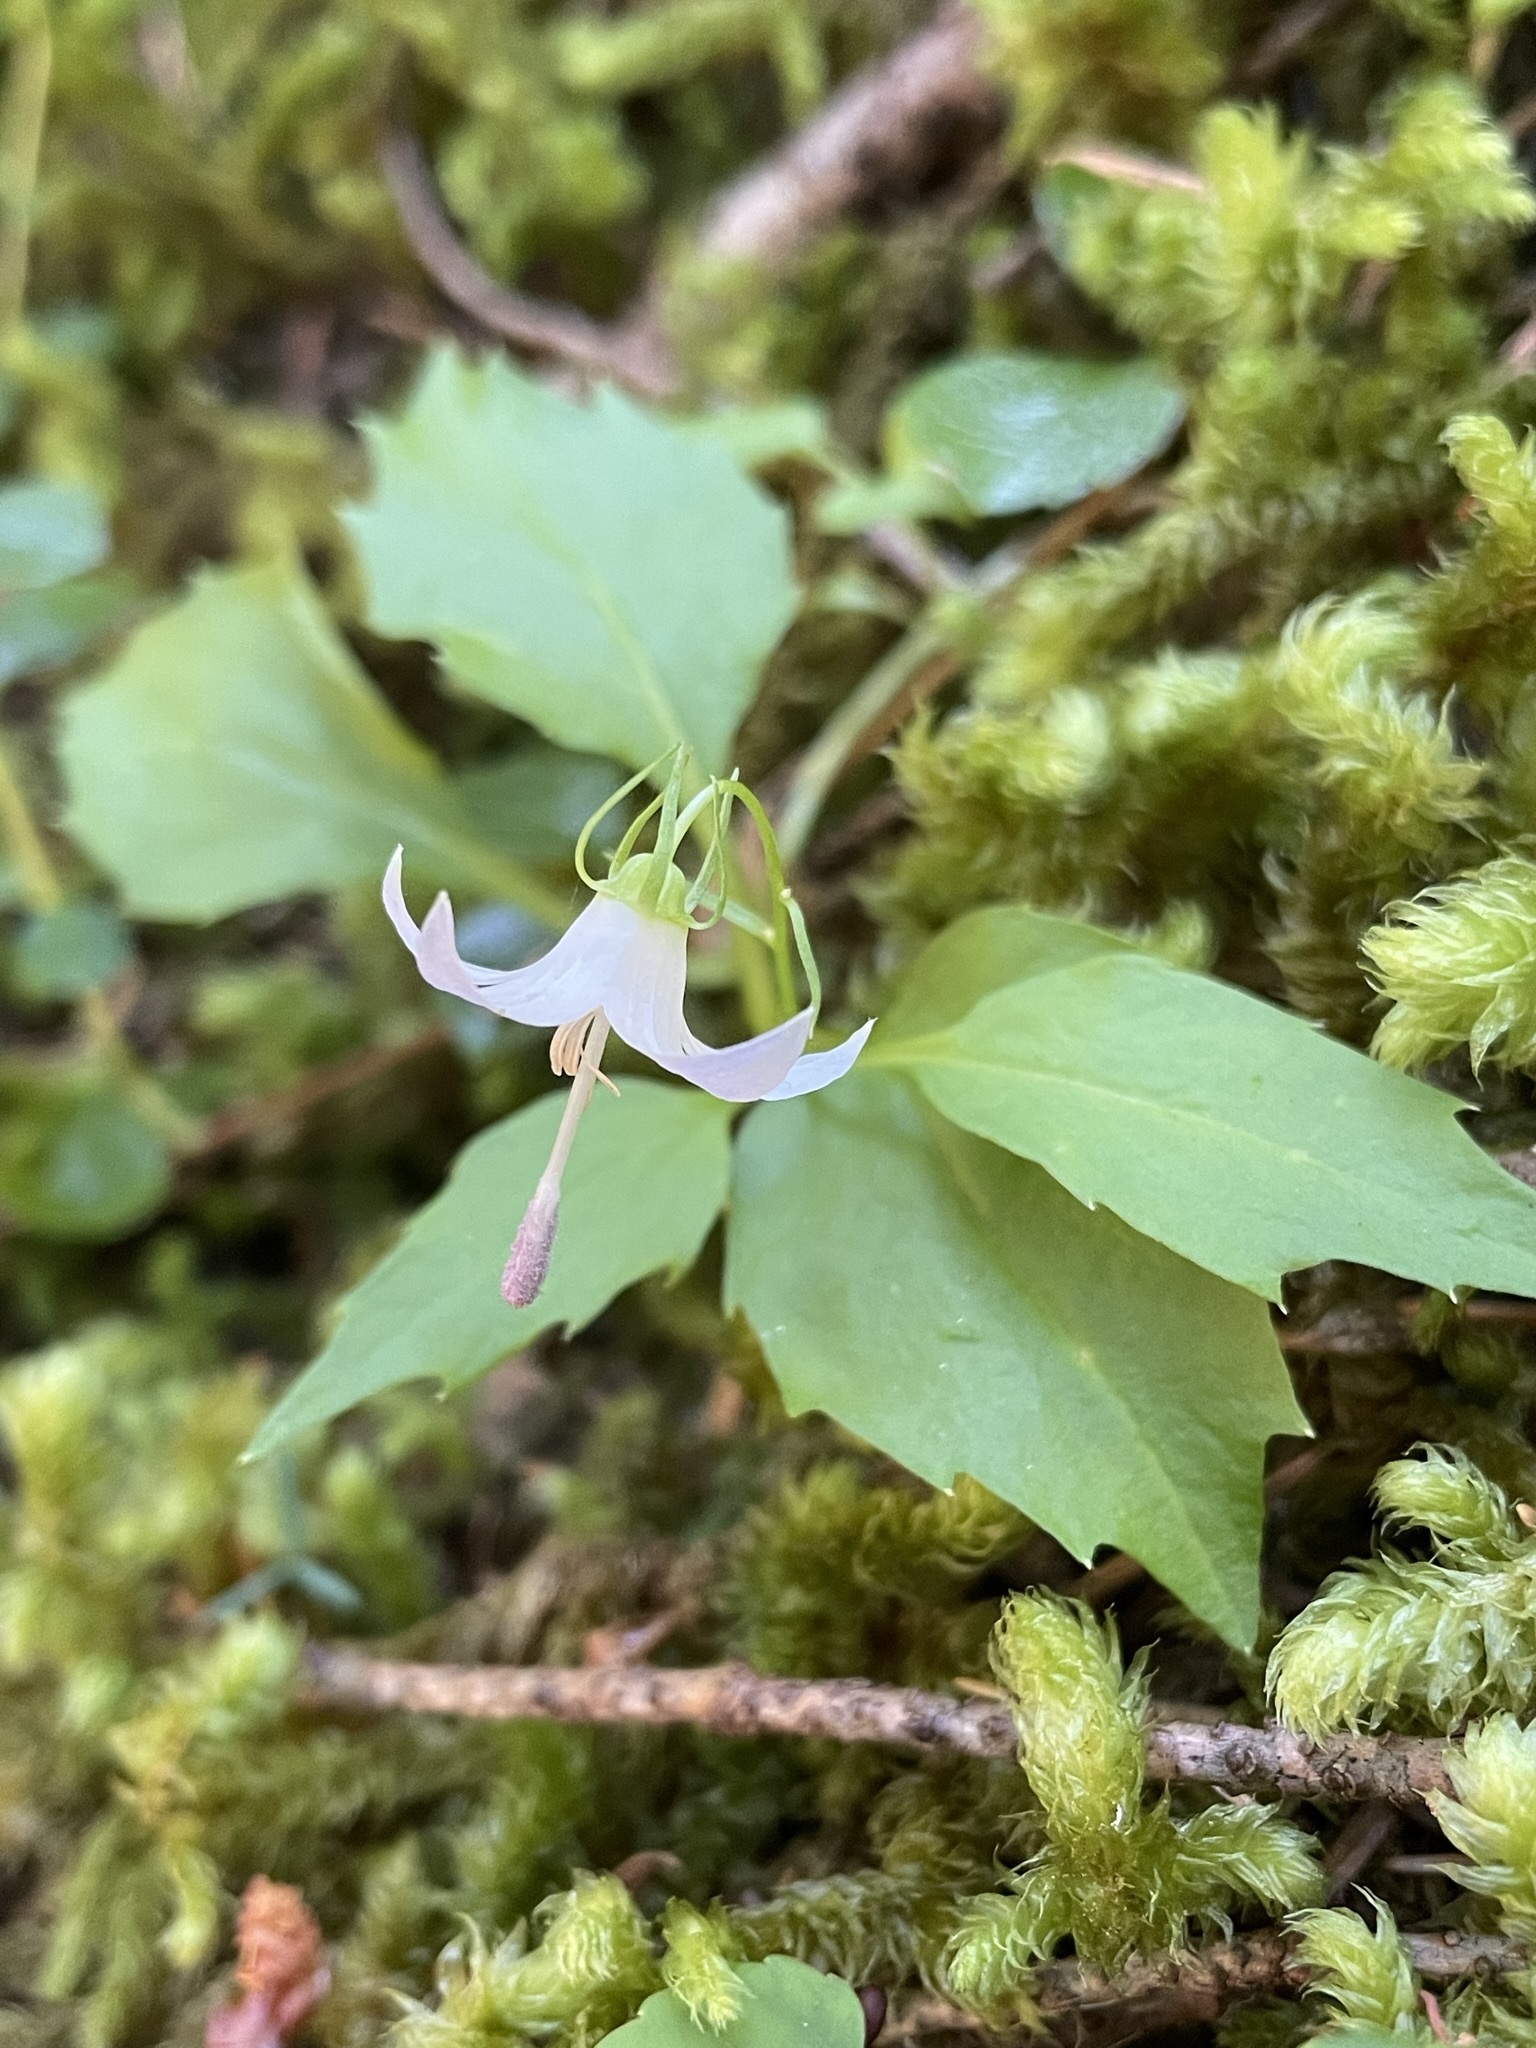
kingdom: Plantae
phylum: Tracheophyta
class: Magnoliopsida
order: Asterales
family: Campanulaceae
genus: Campanula
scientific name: Campanula scouleri
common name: Scouler's harebell
